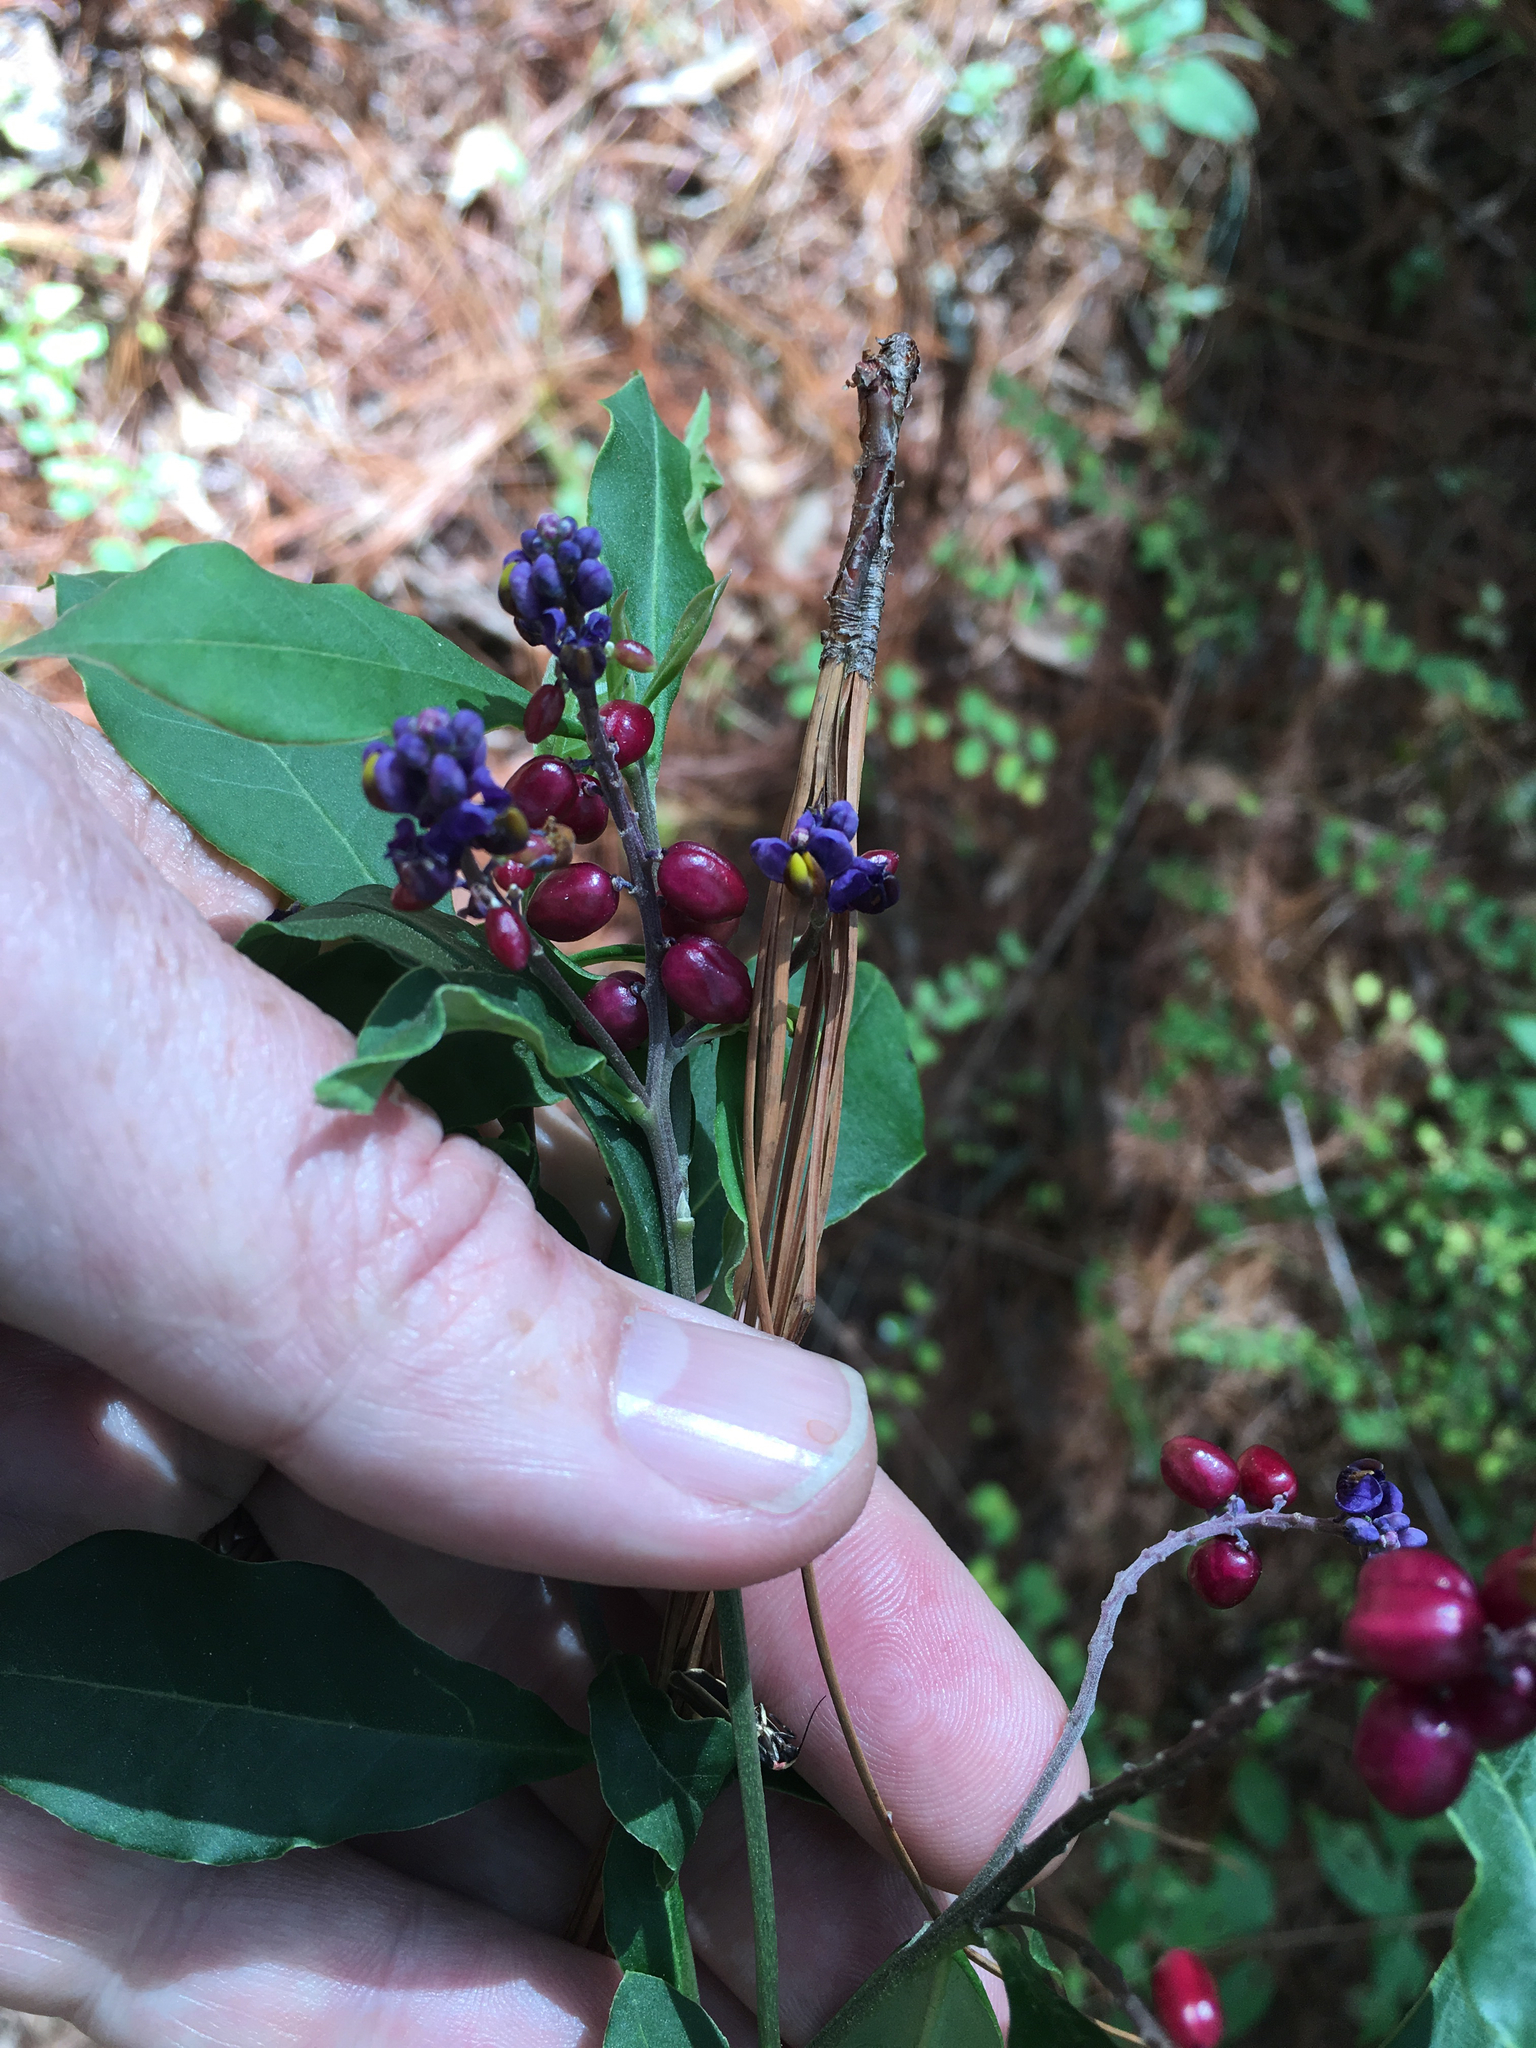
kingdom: Plantae
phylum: Tracheophyta
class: Magnoliopsida
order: Fabales
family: Polygalaceae
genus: Monnina
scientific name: Monnina xalapensis
